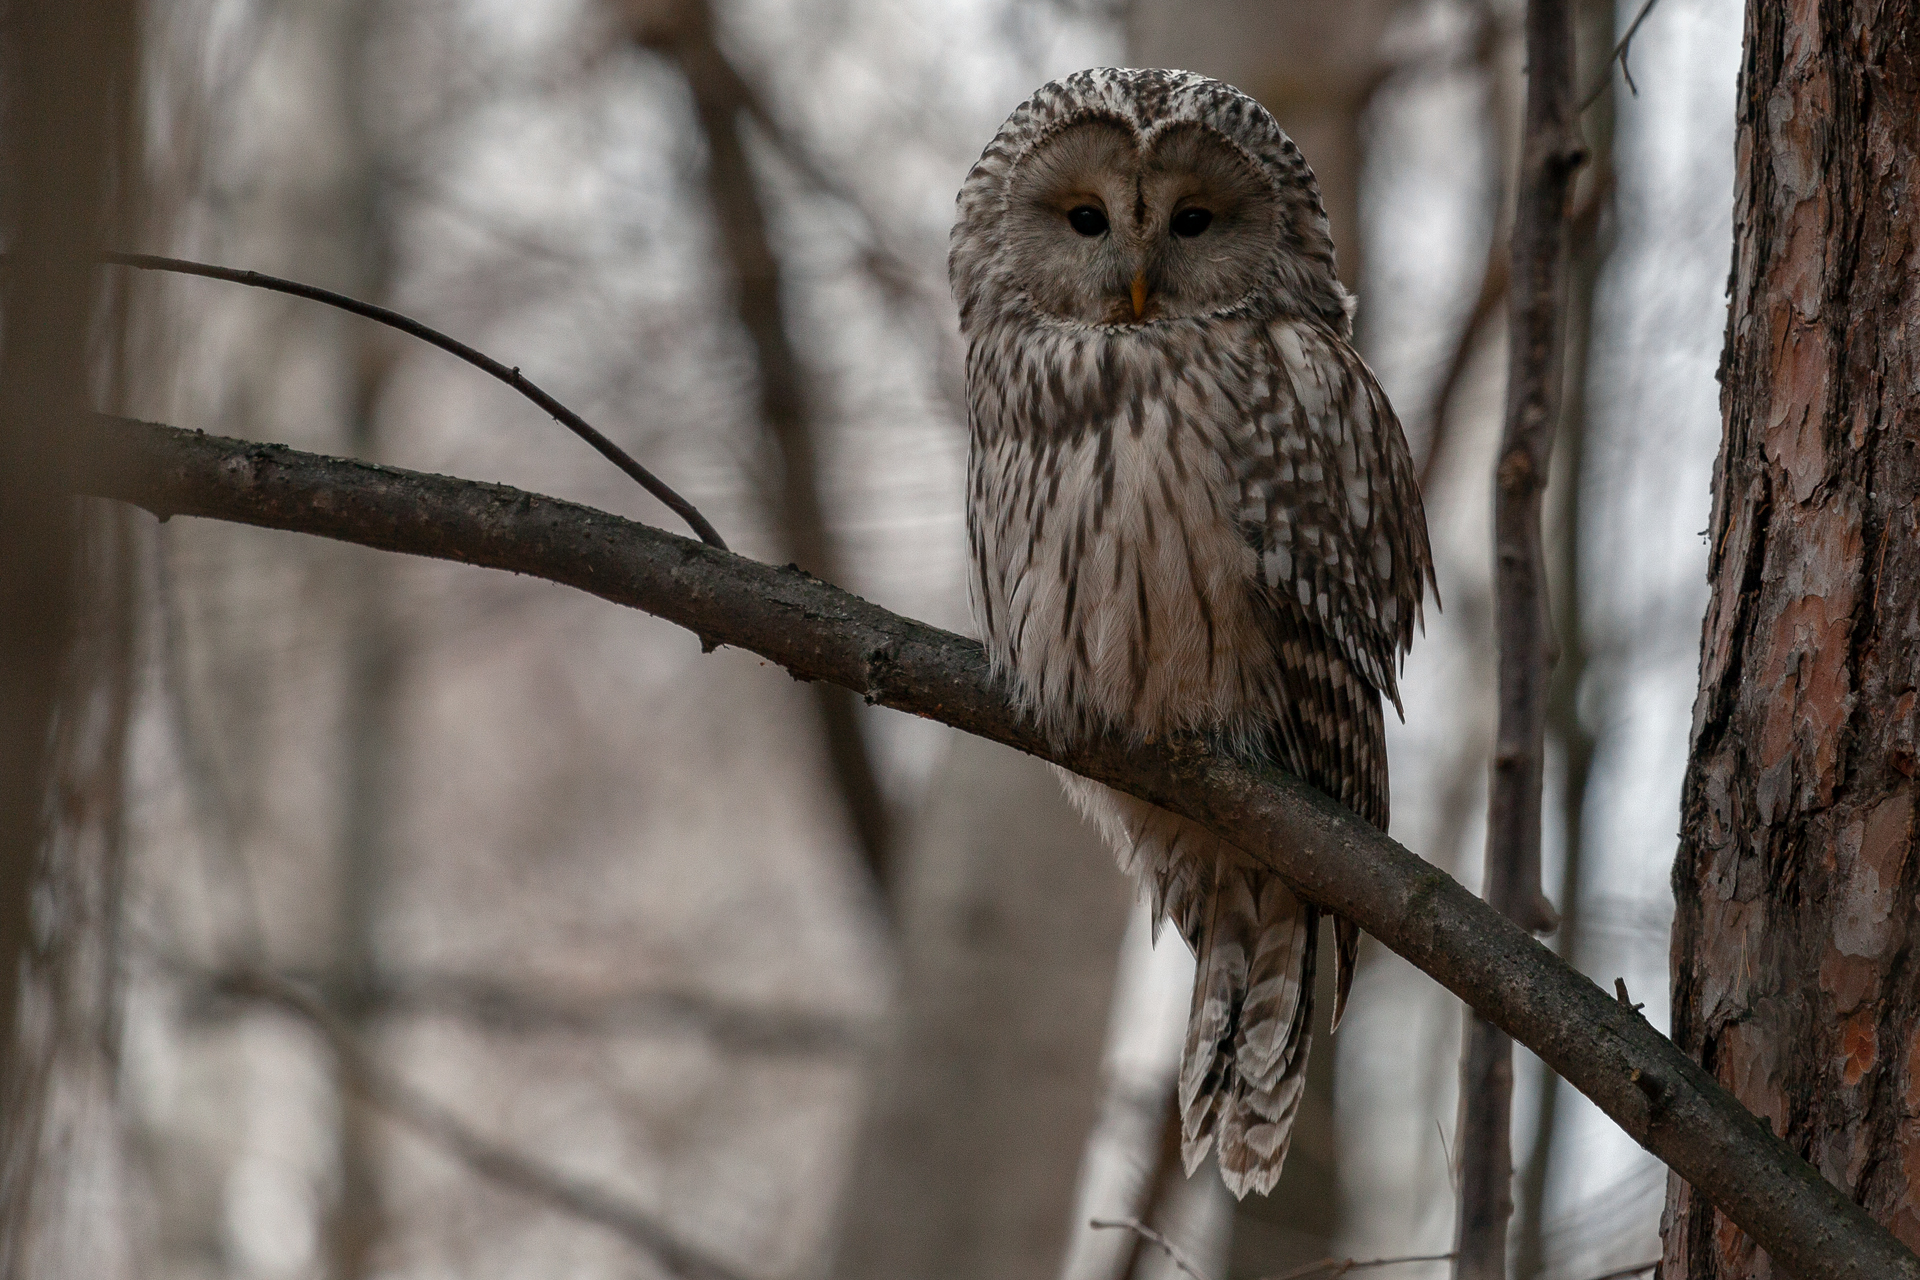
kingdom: Animalia
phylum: Chordata
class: Aves
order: Strigiformes
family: Strigidae
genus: Strix
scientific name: Strix uralensis
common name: Ural owl
